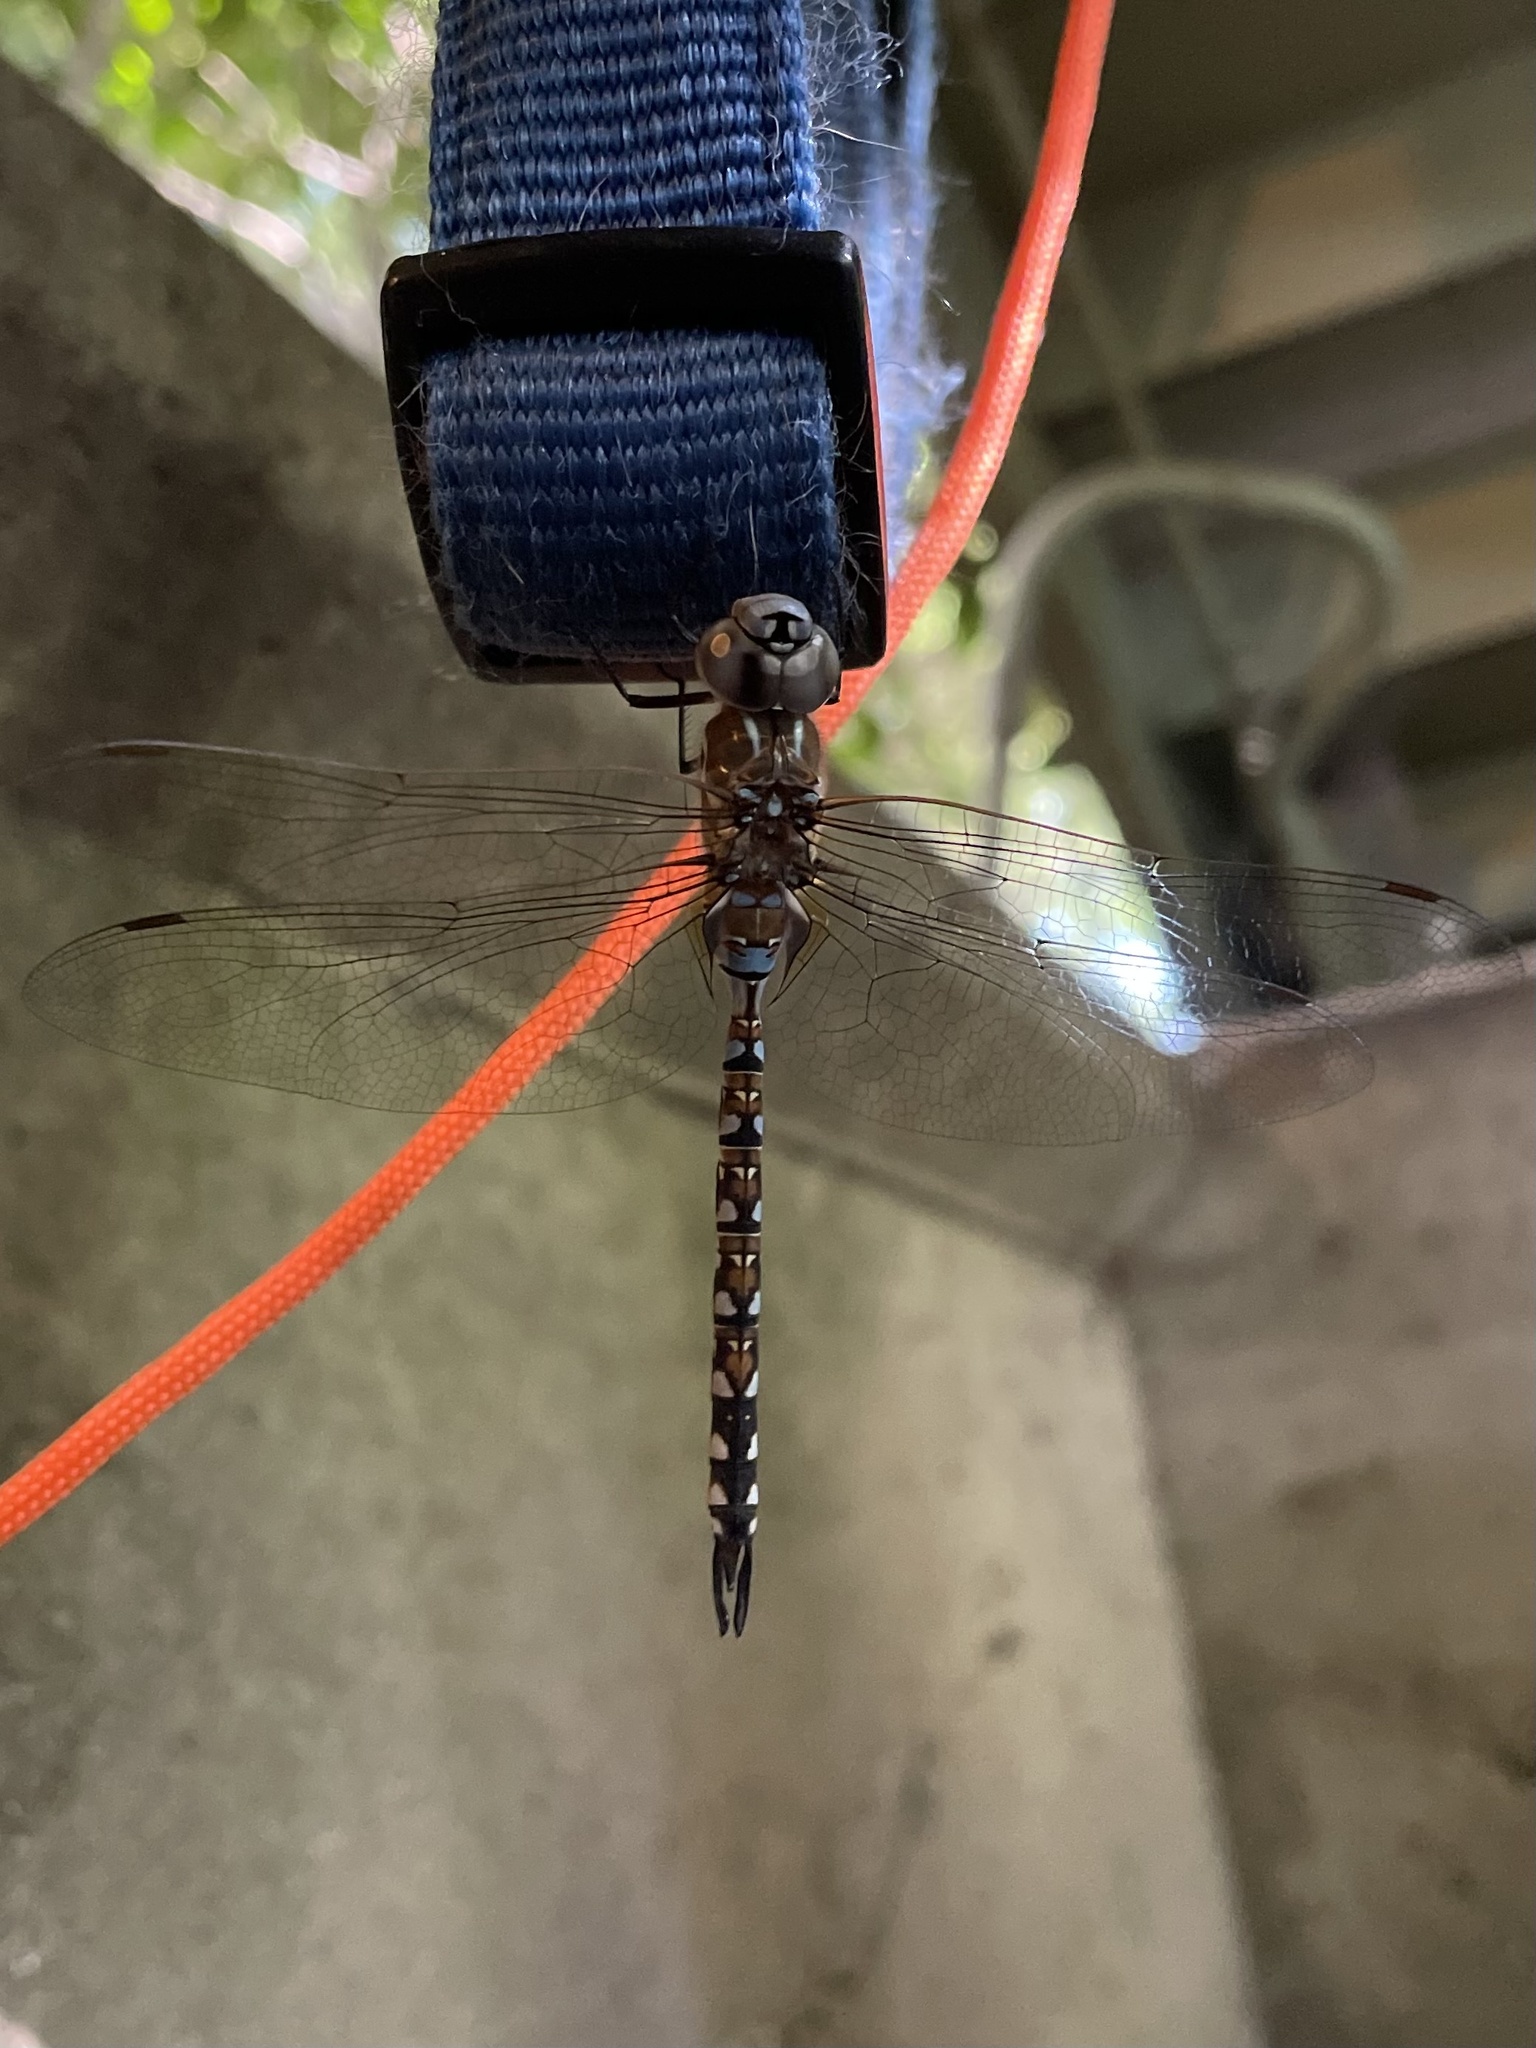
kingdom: Animalia
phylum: Arthropoda
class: Insecta
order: Odonata
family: Aeshnidae
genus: Rhionaeschna
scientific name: Rhionaeschna multicolor
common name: Blue-eyed darner
